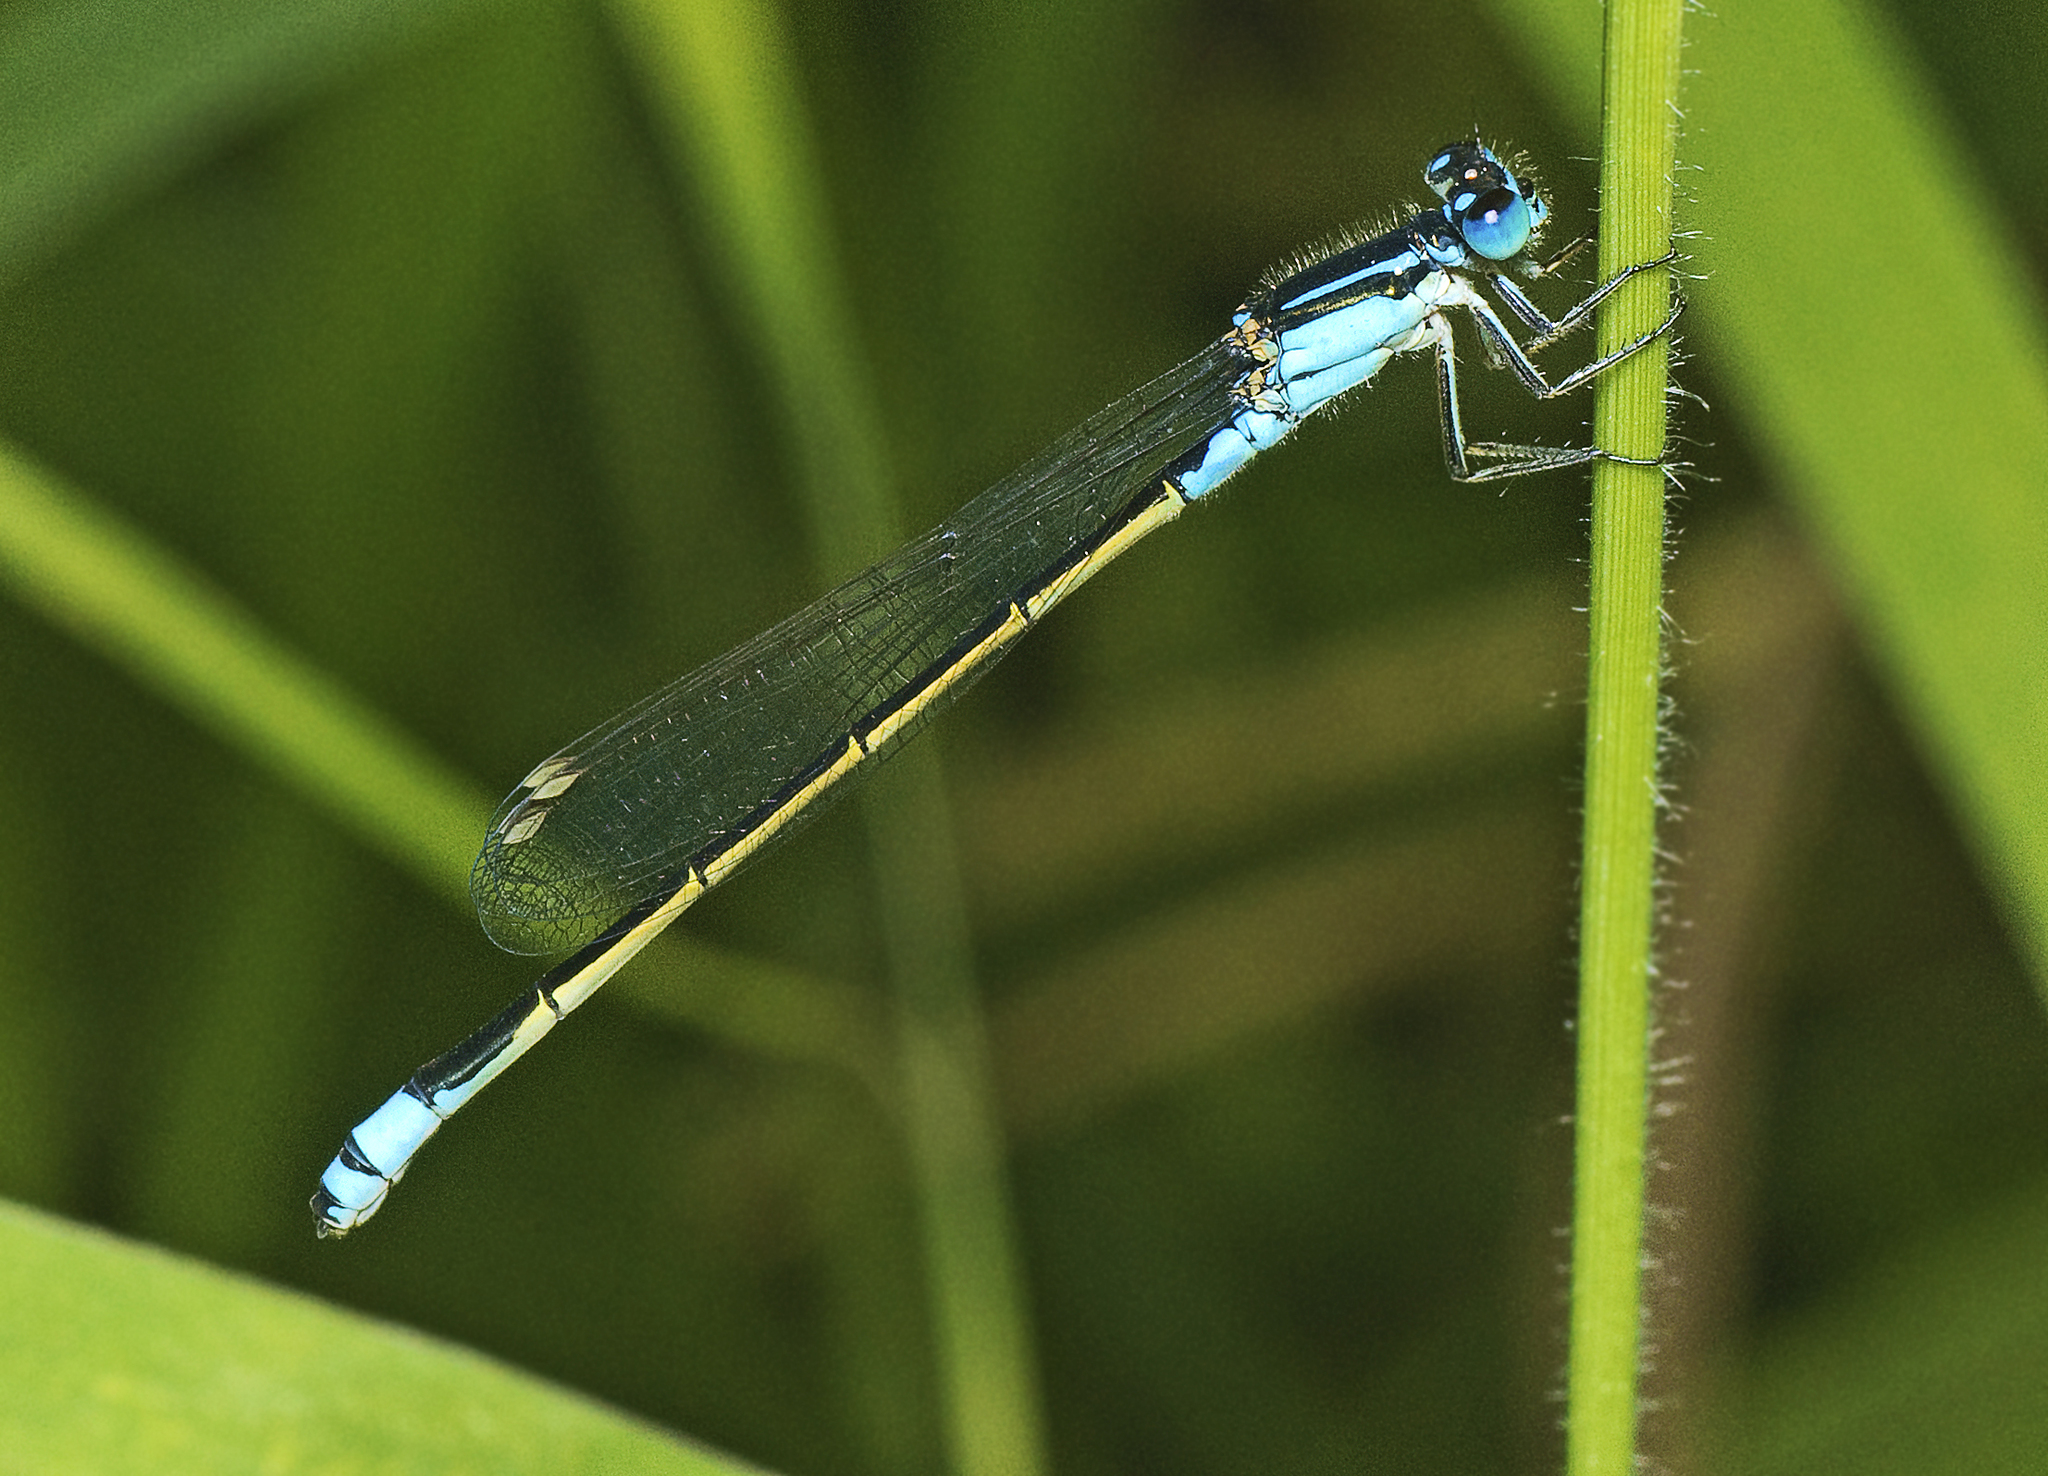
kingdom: Animalia
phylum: Arthropoda
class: Insecta
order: Odonata
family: Coenagrionidae
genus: Ischnura
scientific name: Ischnura heterosticta
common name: Common bluetail
